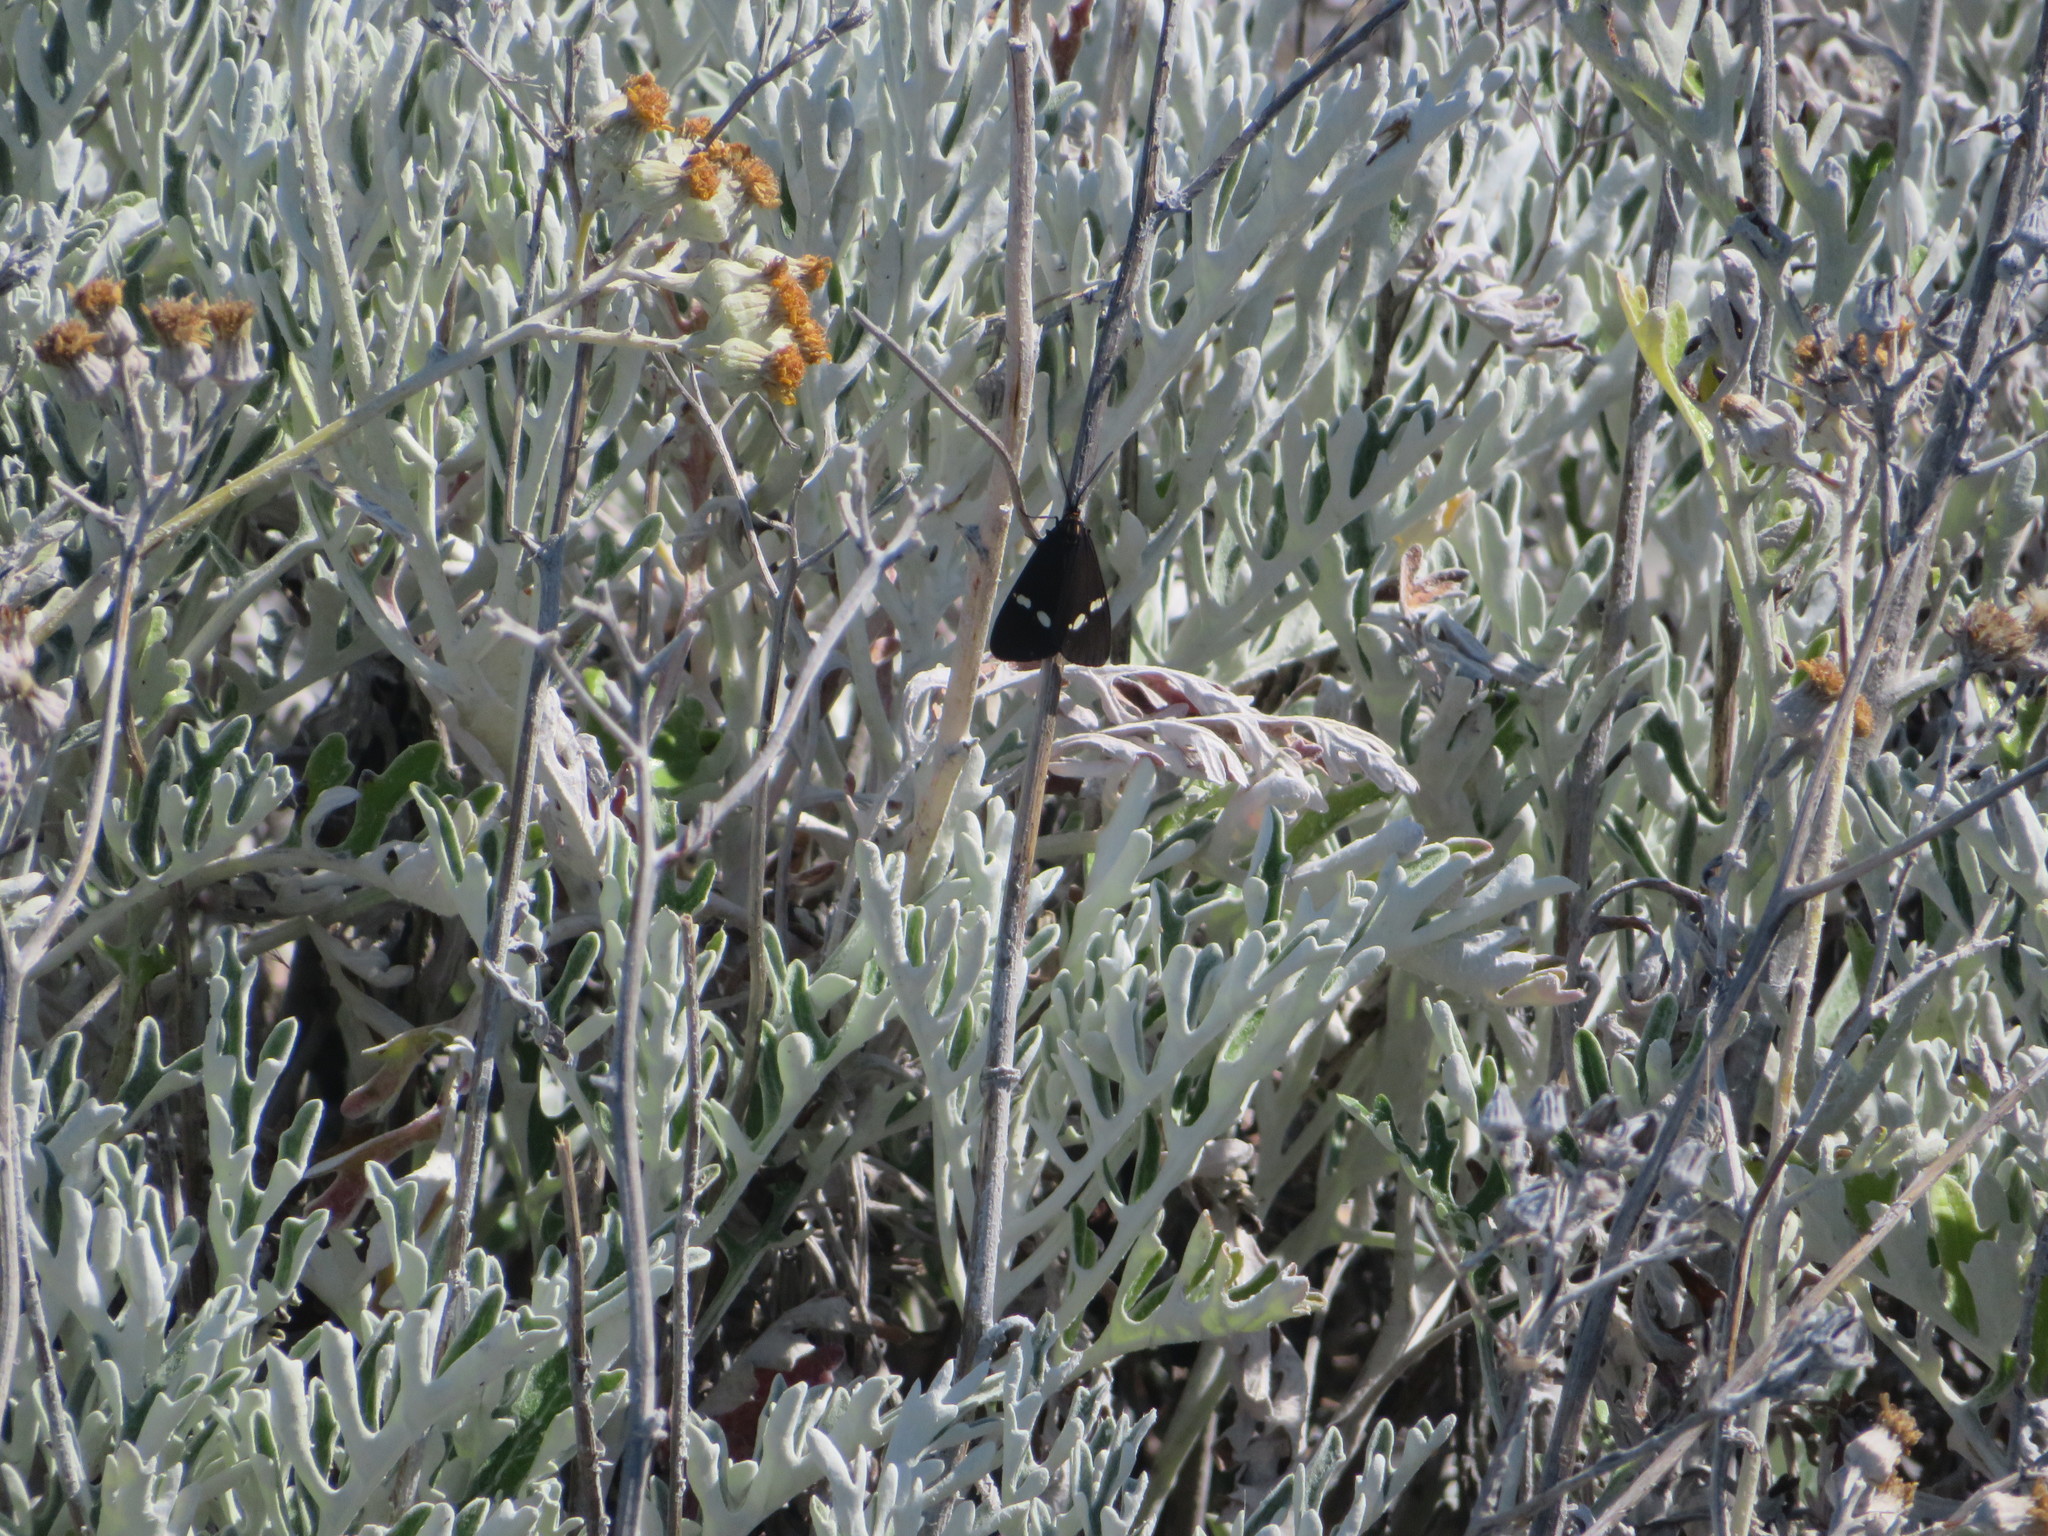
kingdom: Animalia
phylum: Arthropoda
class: Insecta
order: Lepidoptera
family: Erebidae
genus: Nyctemera
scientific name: Nyctemera annulatum
